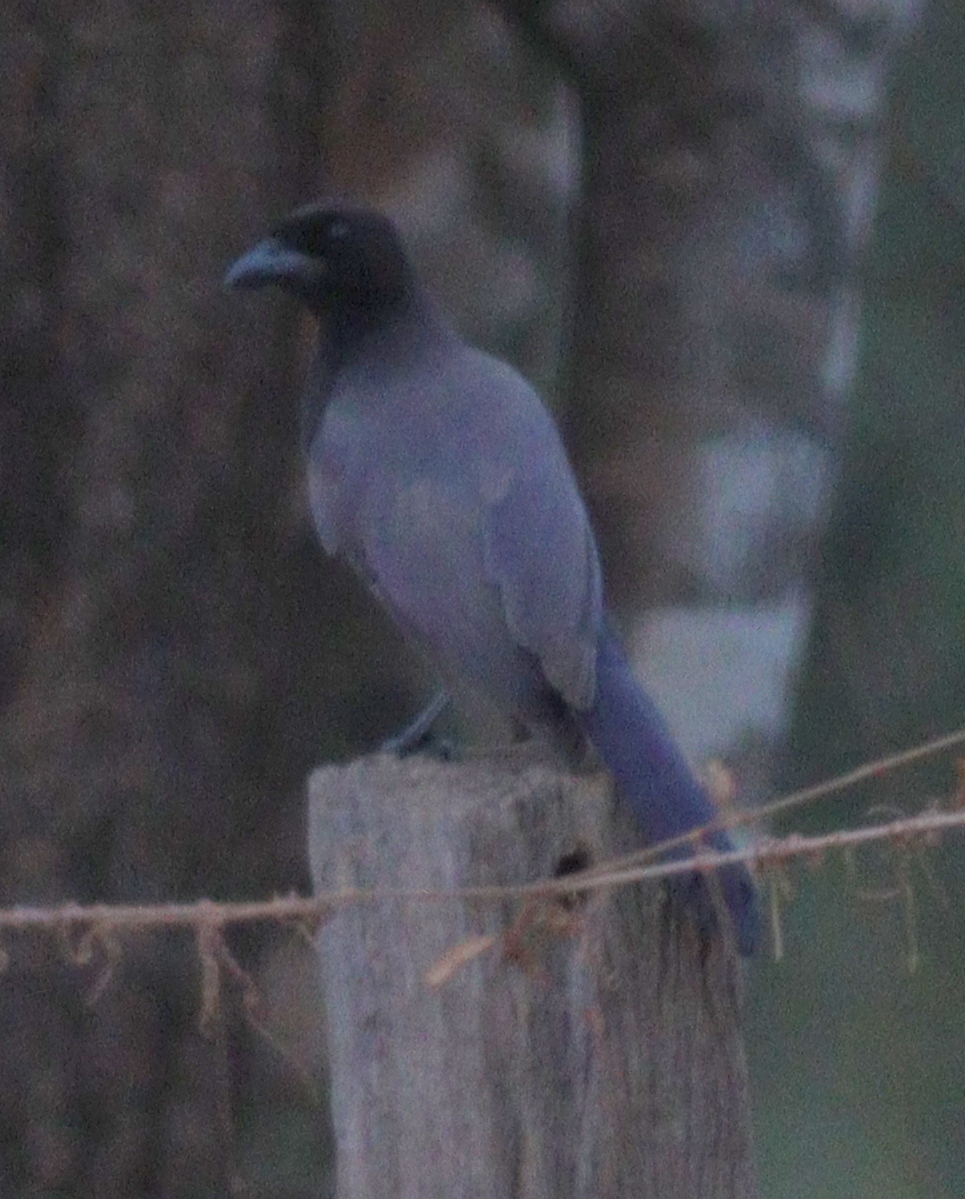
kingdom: Animalia
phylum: Chordata
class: Aves
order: Passeriformes
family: Corvidae
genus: Cyanocorax
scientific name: Cyanocorax cyanomelas
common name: Purplish jay
